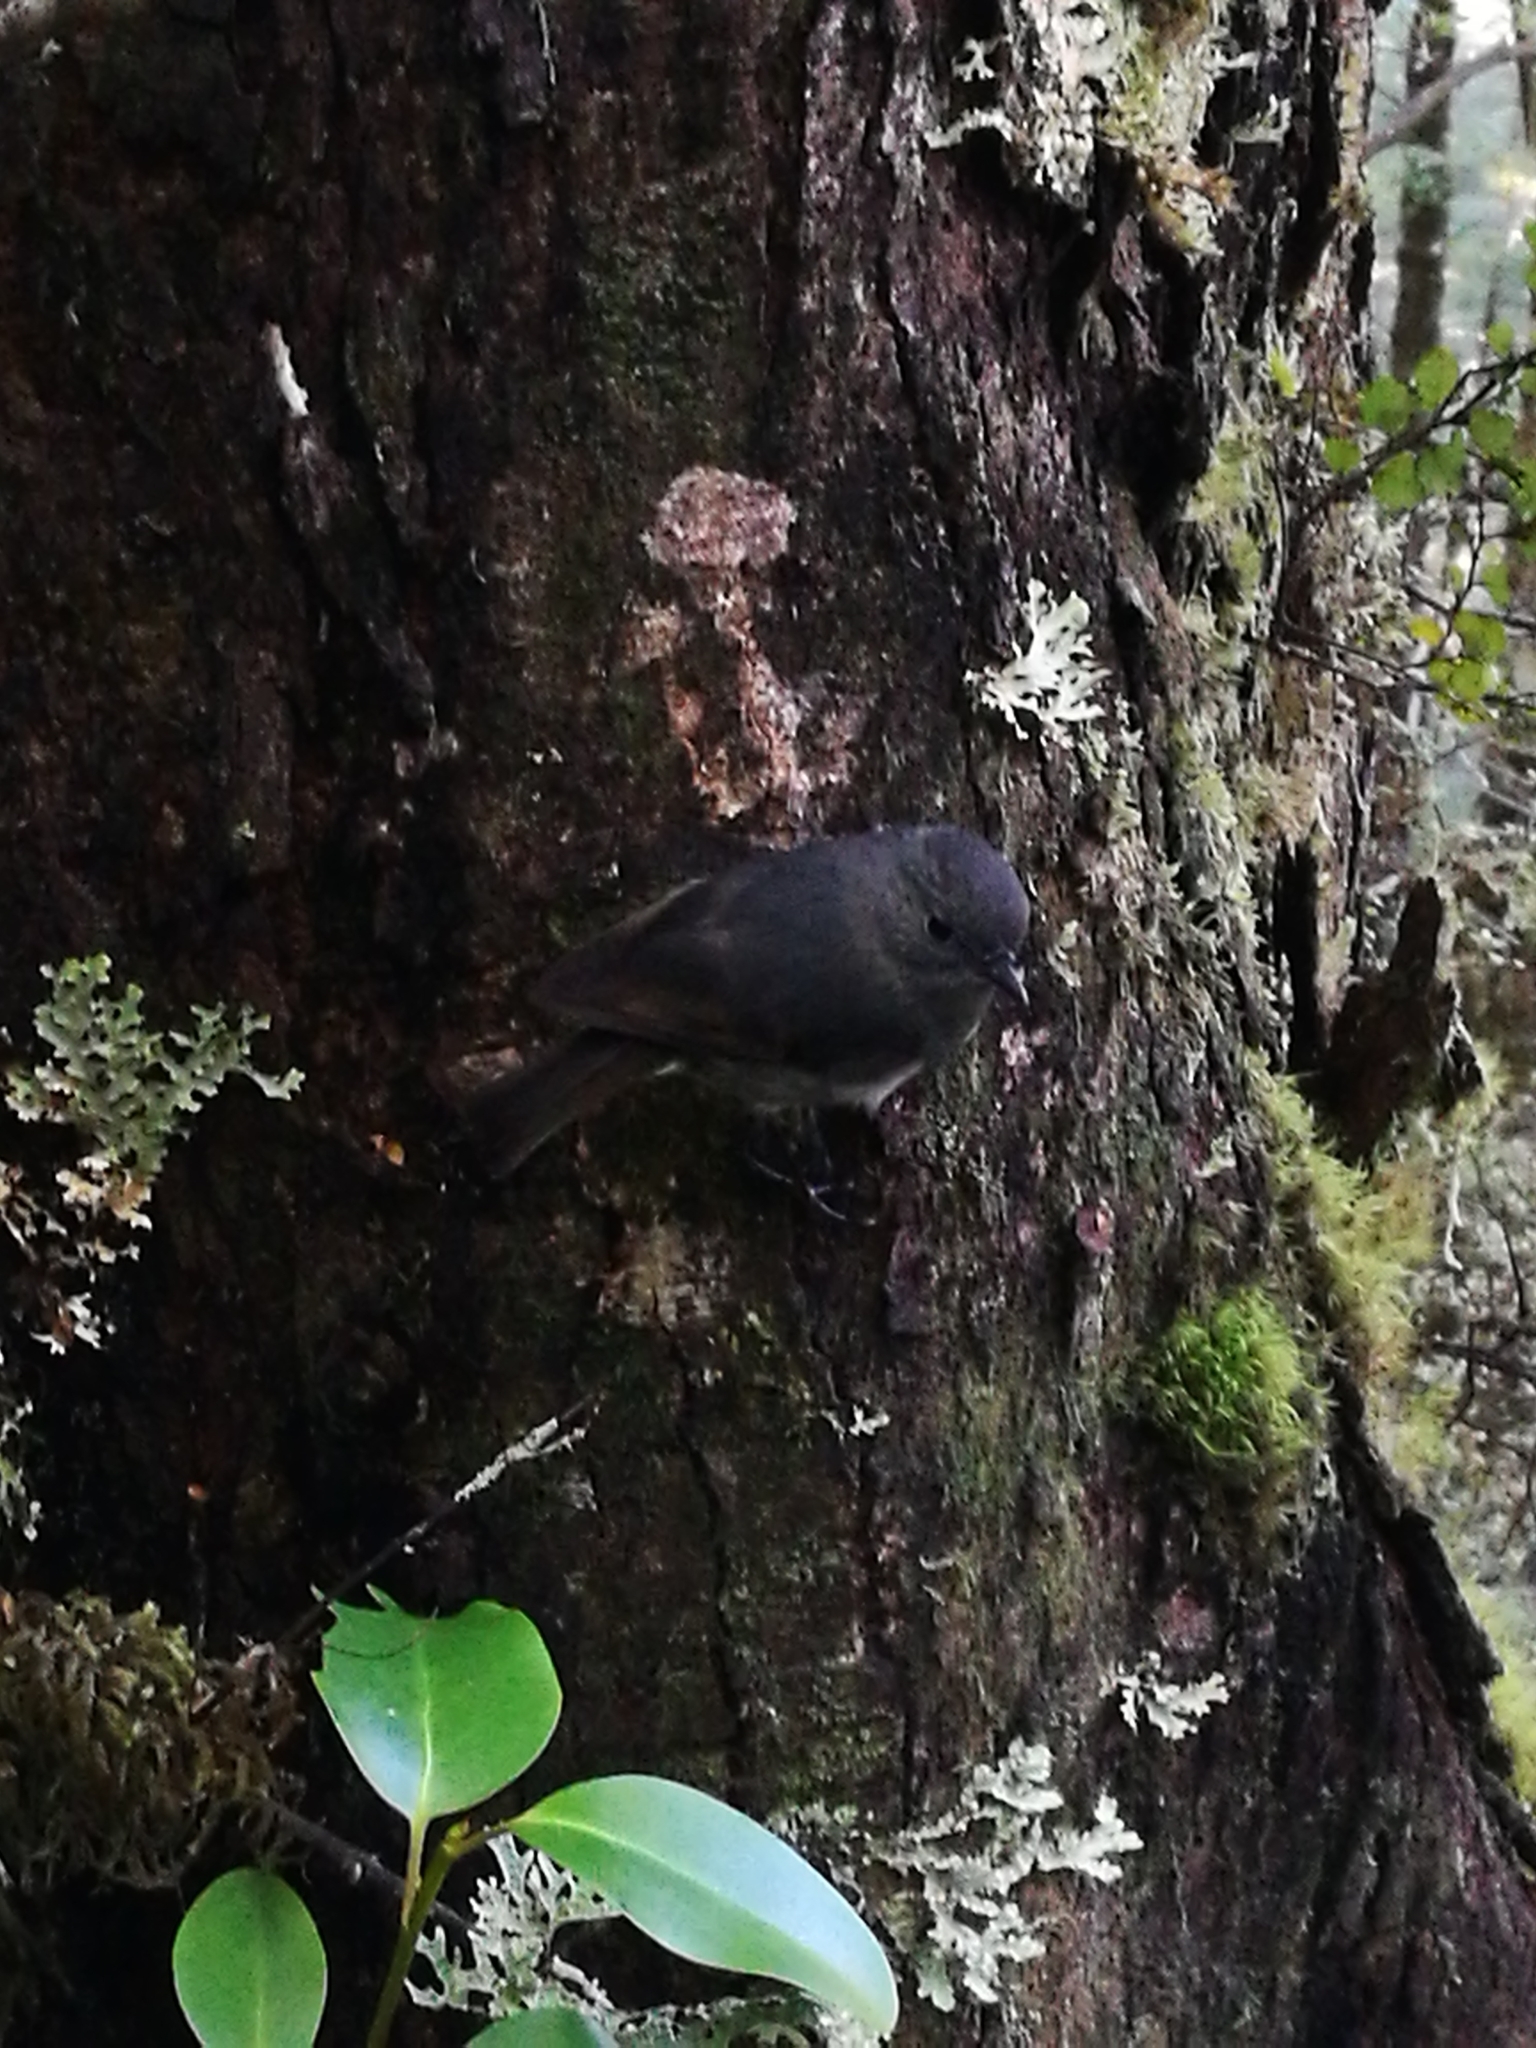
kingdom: Animalia
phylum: Chordata
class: Aves
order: Passeriformes
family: Petroicidae
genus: Petroica
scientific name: Petroica australis
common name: New zealand robin
